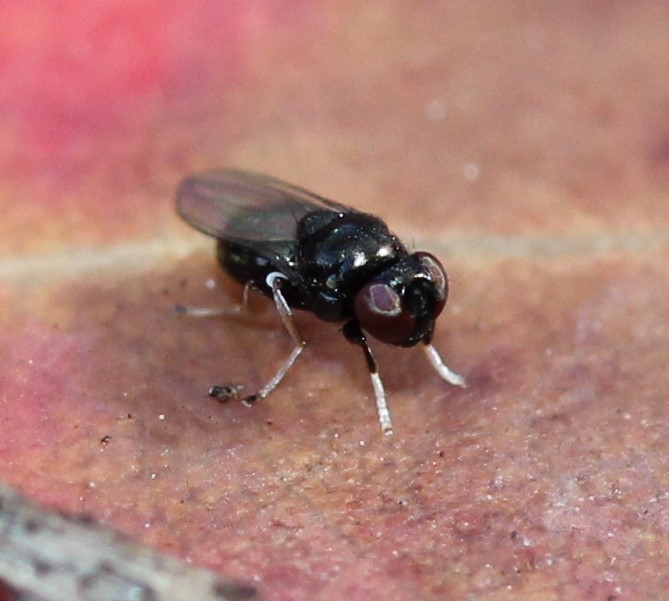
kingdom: Animalia
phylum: Arthropoda
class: Insecta
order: Diptera
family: Ephydridae
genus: Athyroglossa
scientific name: Athyroglossa glaphyropus
